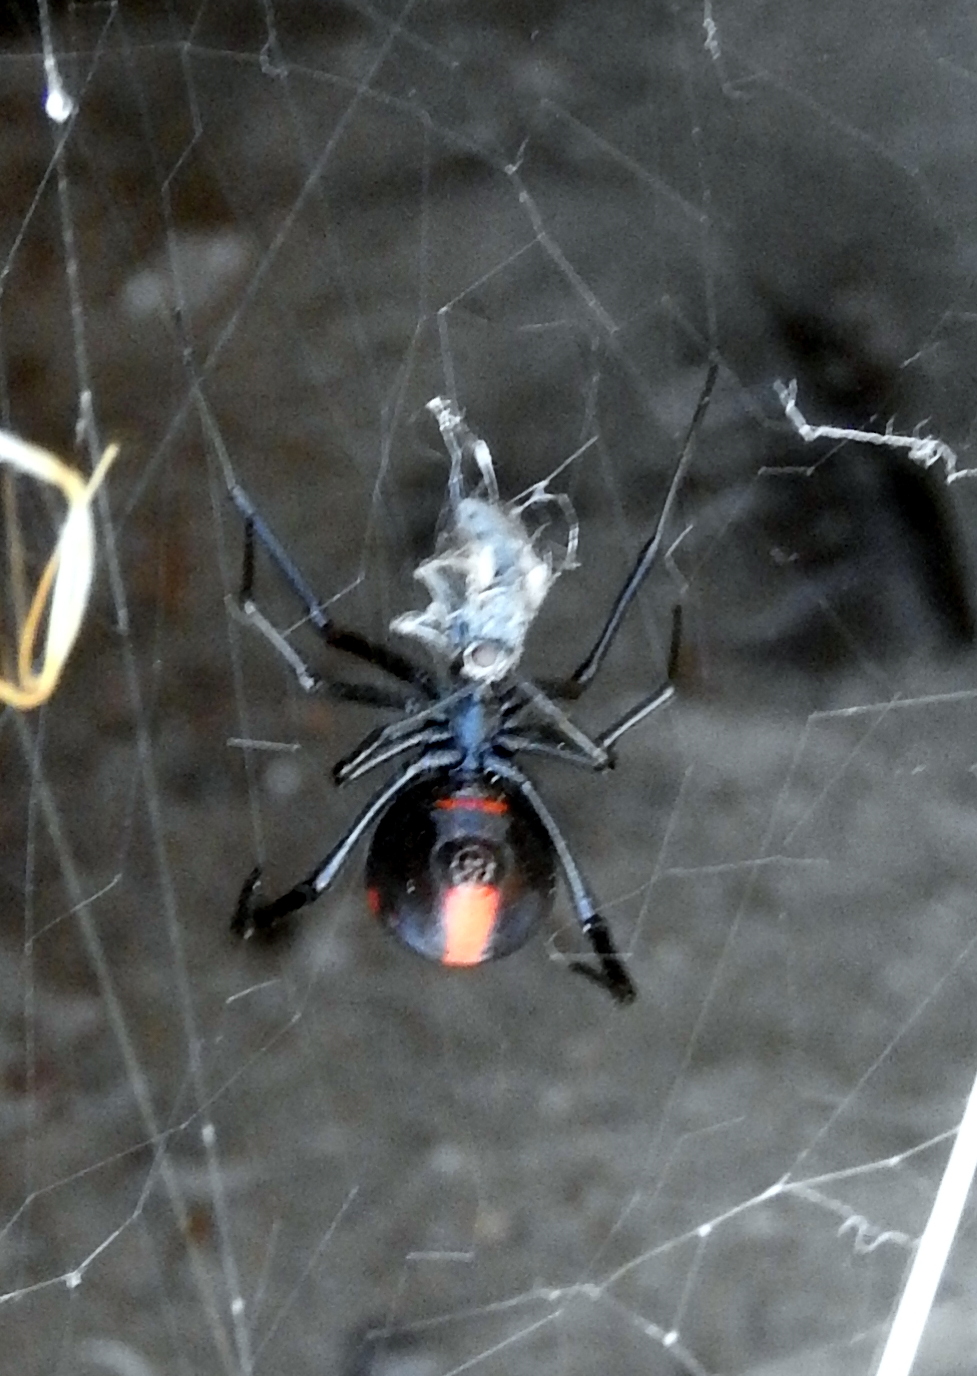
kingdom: Animalia
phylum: Arthropoda
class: Arachnida
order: Araneae
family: Theridiidae
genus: Latrodectus
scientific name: Latrodectus mirabilis
